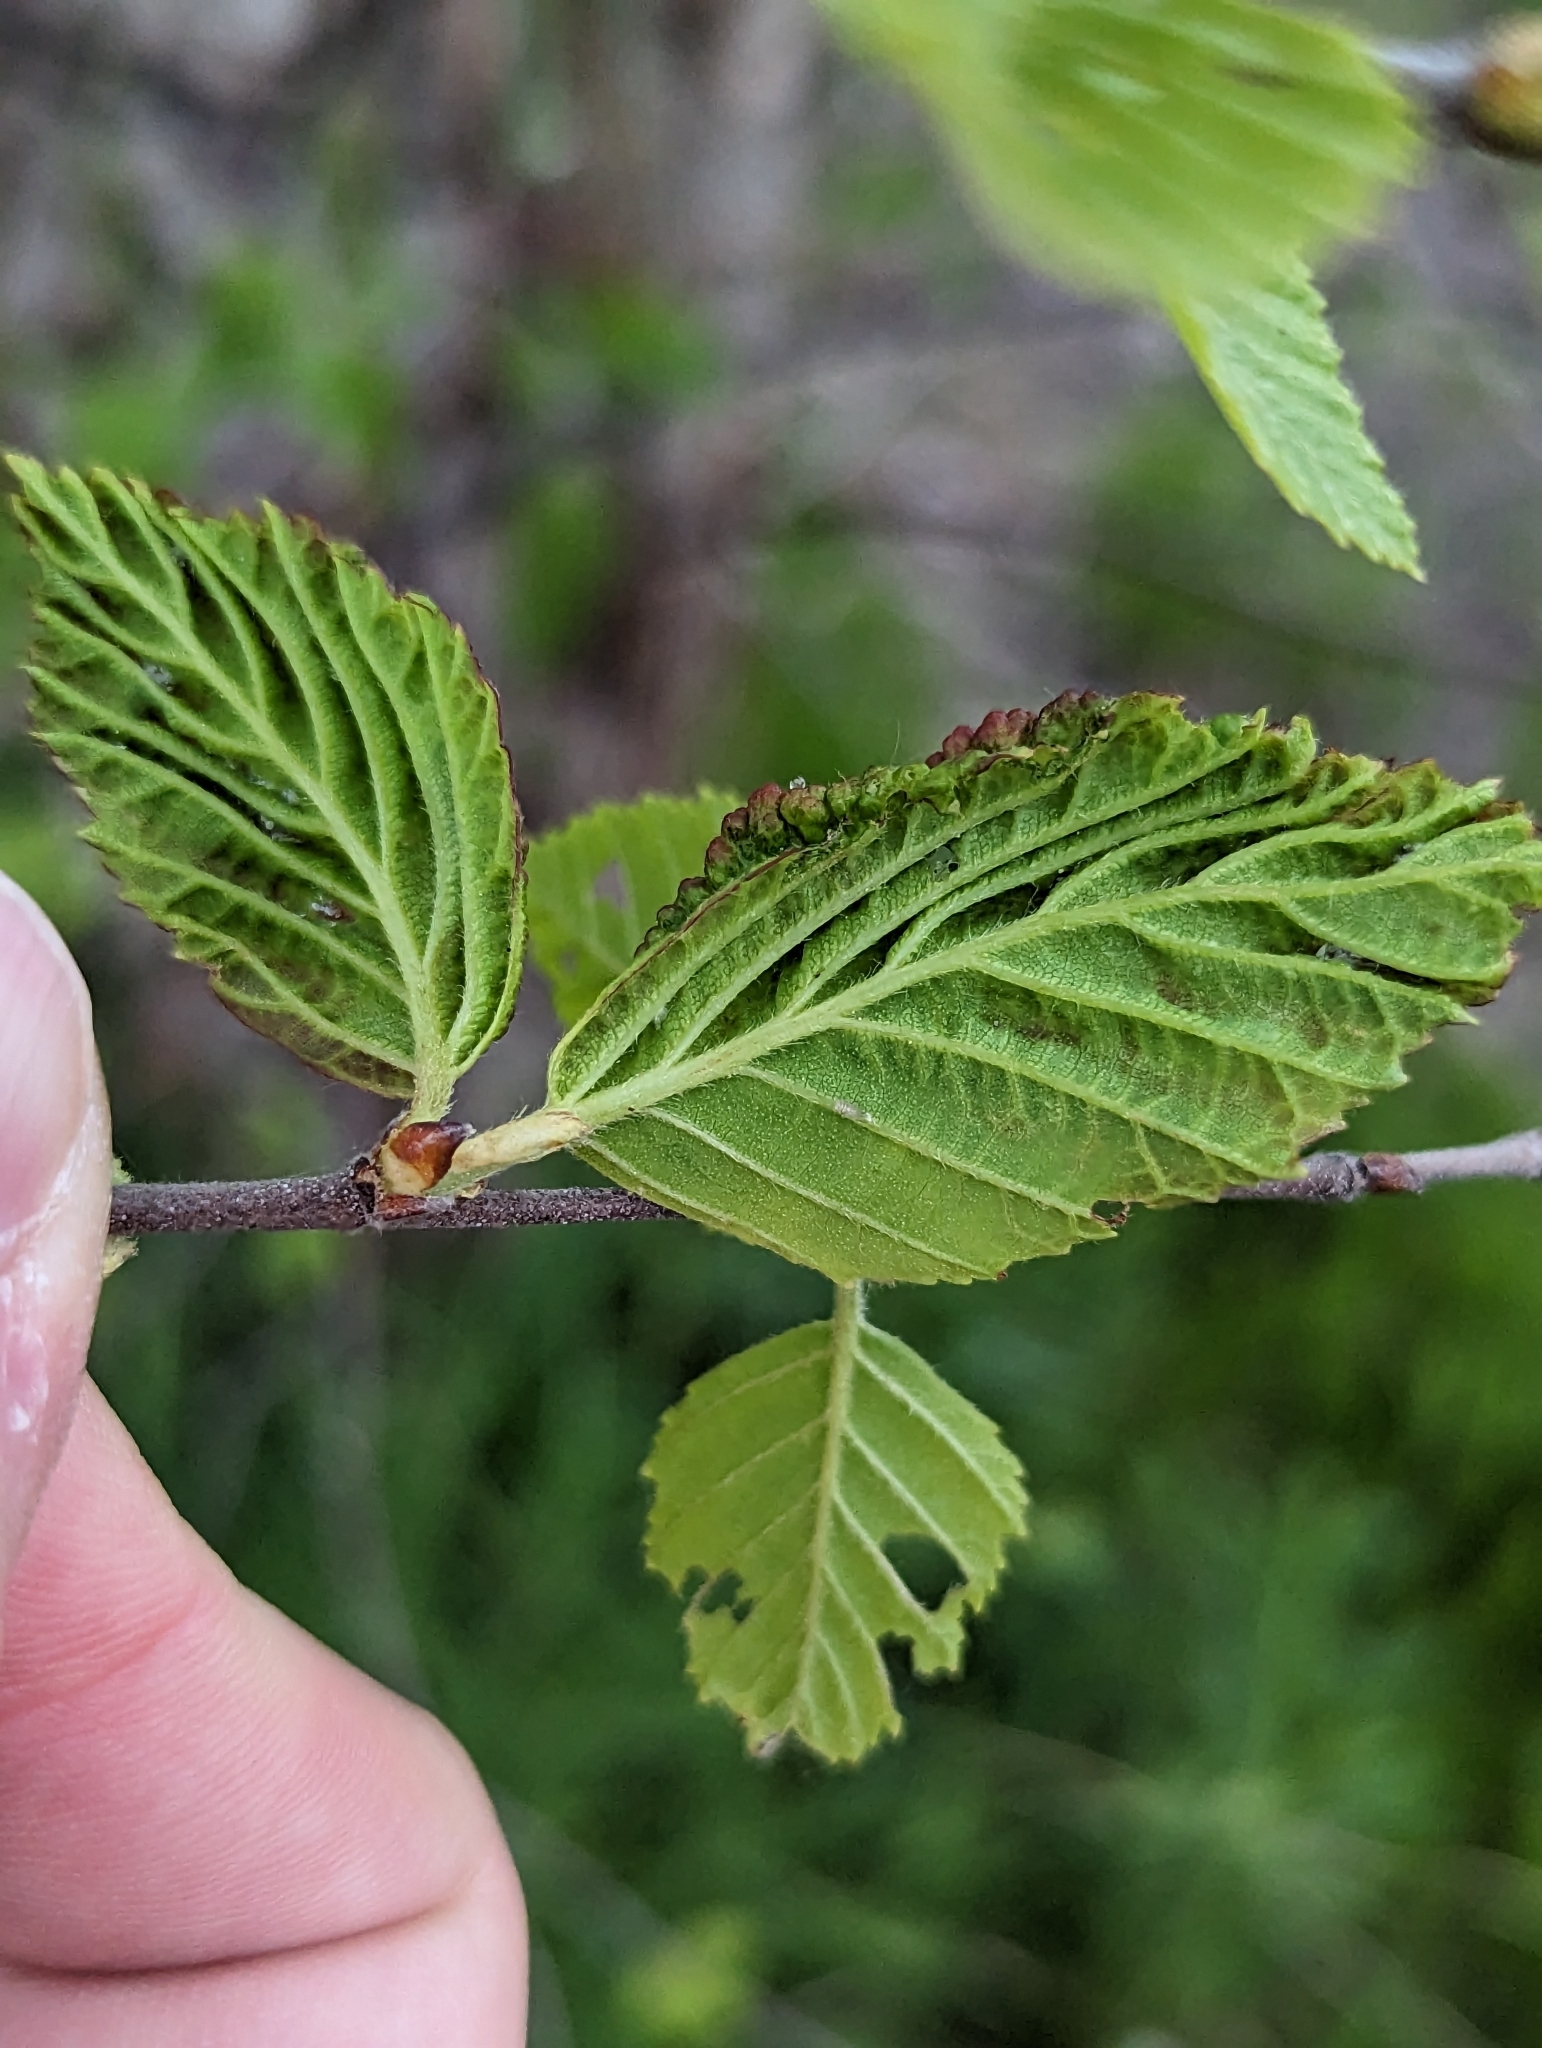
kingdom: Animalia
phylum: Arthropoda
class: Insecta
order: Hemiptera
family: Aphididae
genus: Hamamelistes
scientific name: Hamamelistes spinosus
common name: Witch hazel gall aphid
